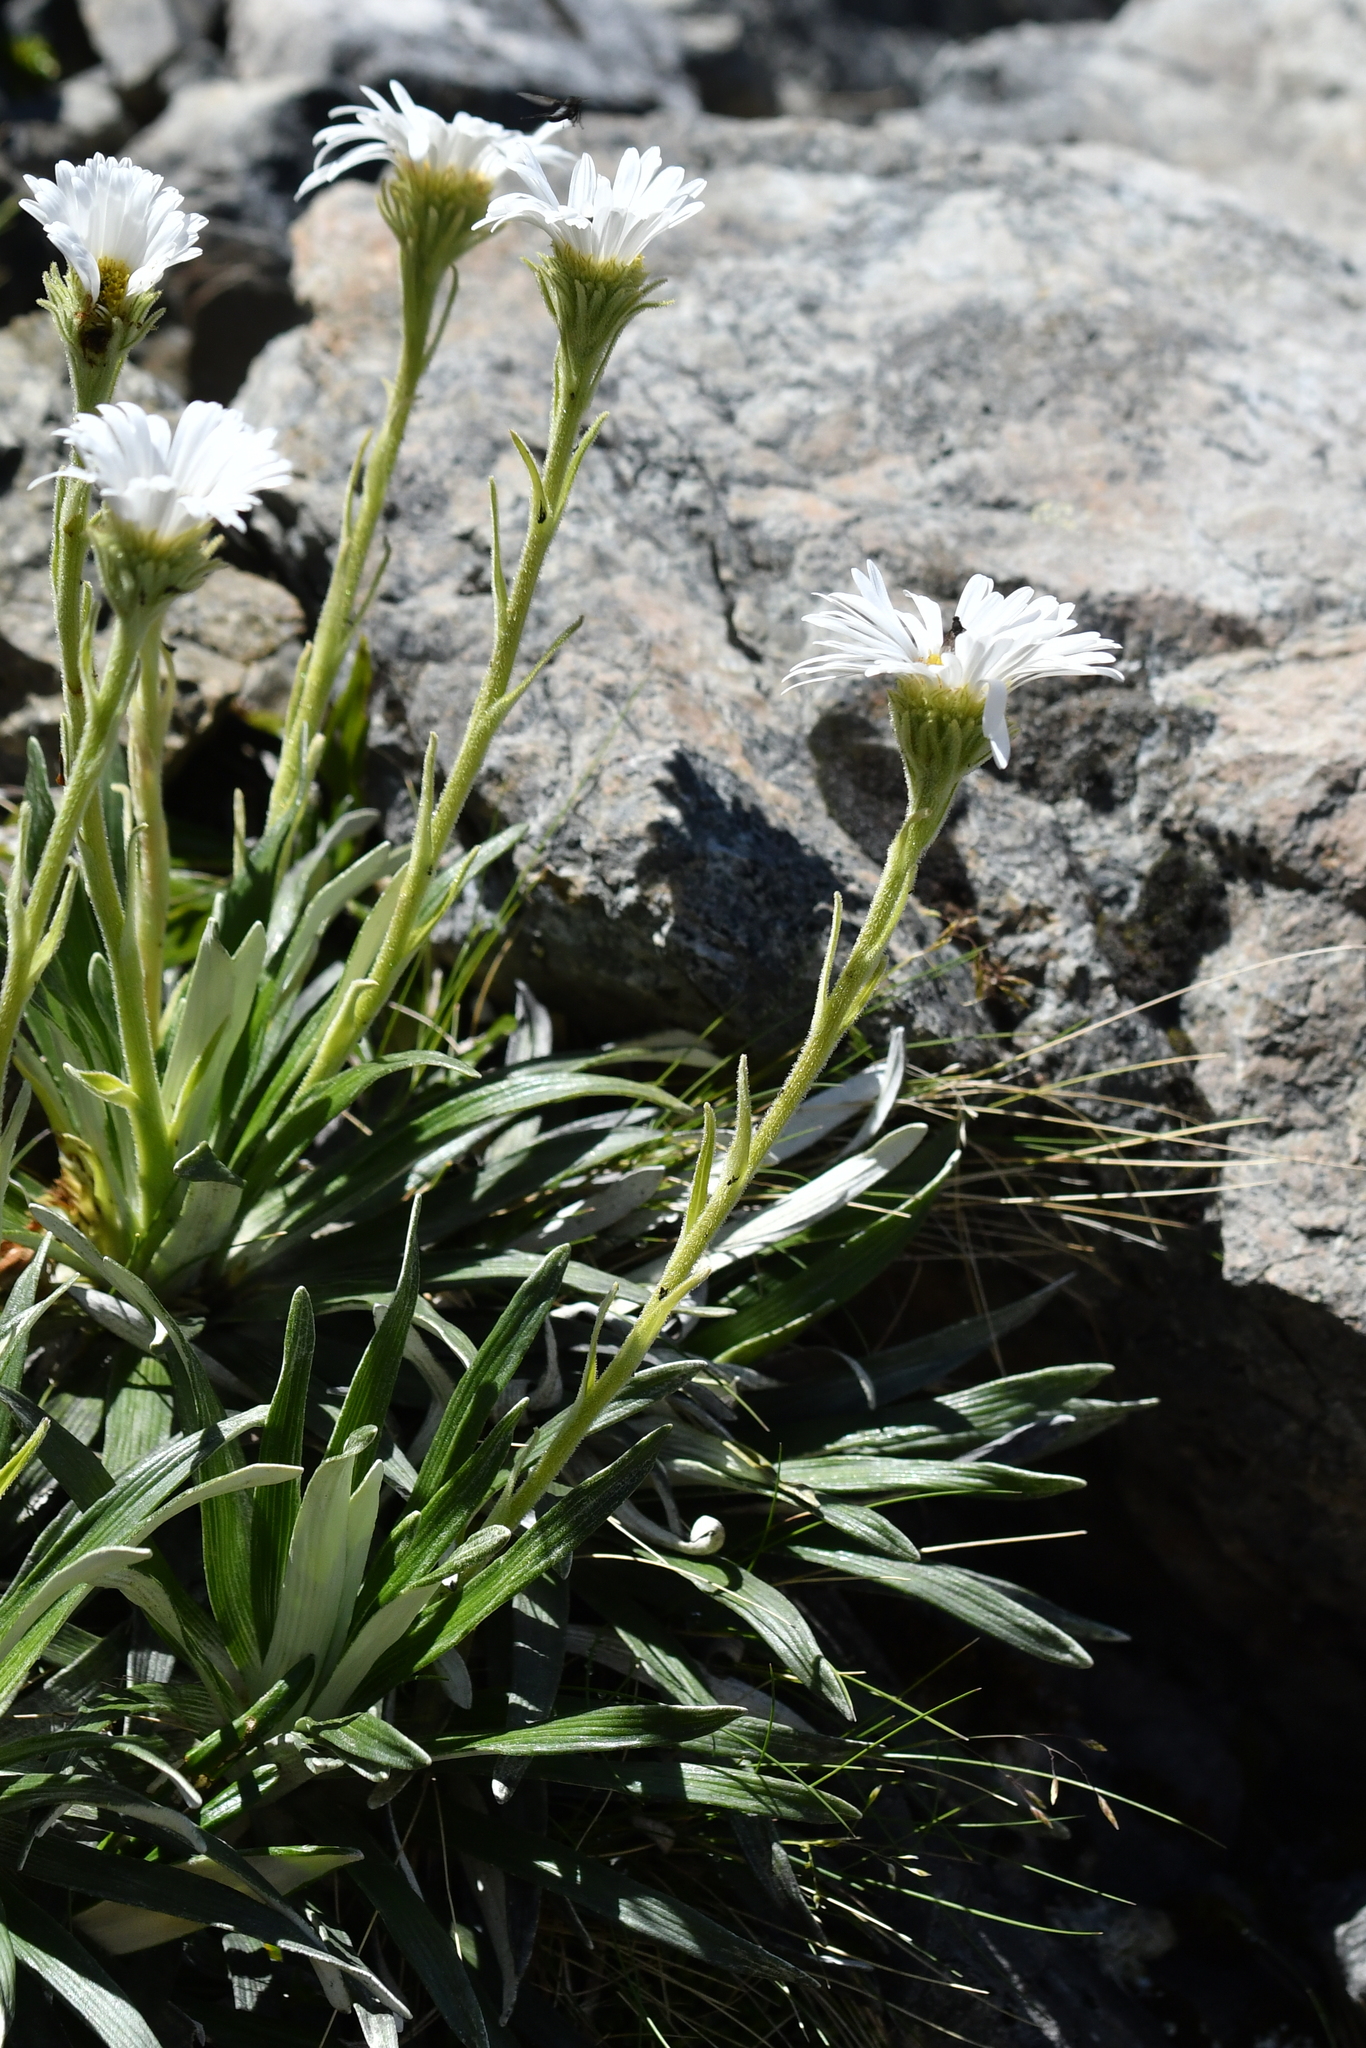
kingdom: Plantae
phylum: Tracheophyta
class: Magnoliopsida
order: Asterales
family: Asteraceae
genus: Celmisia
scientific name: Celmisia viscosa
